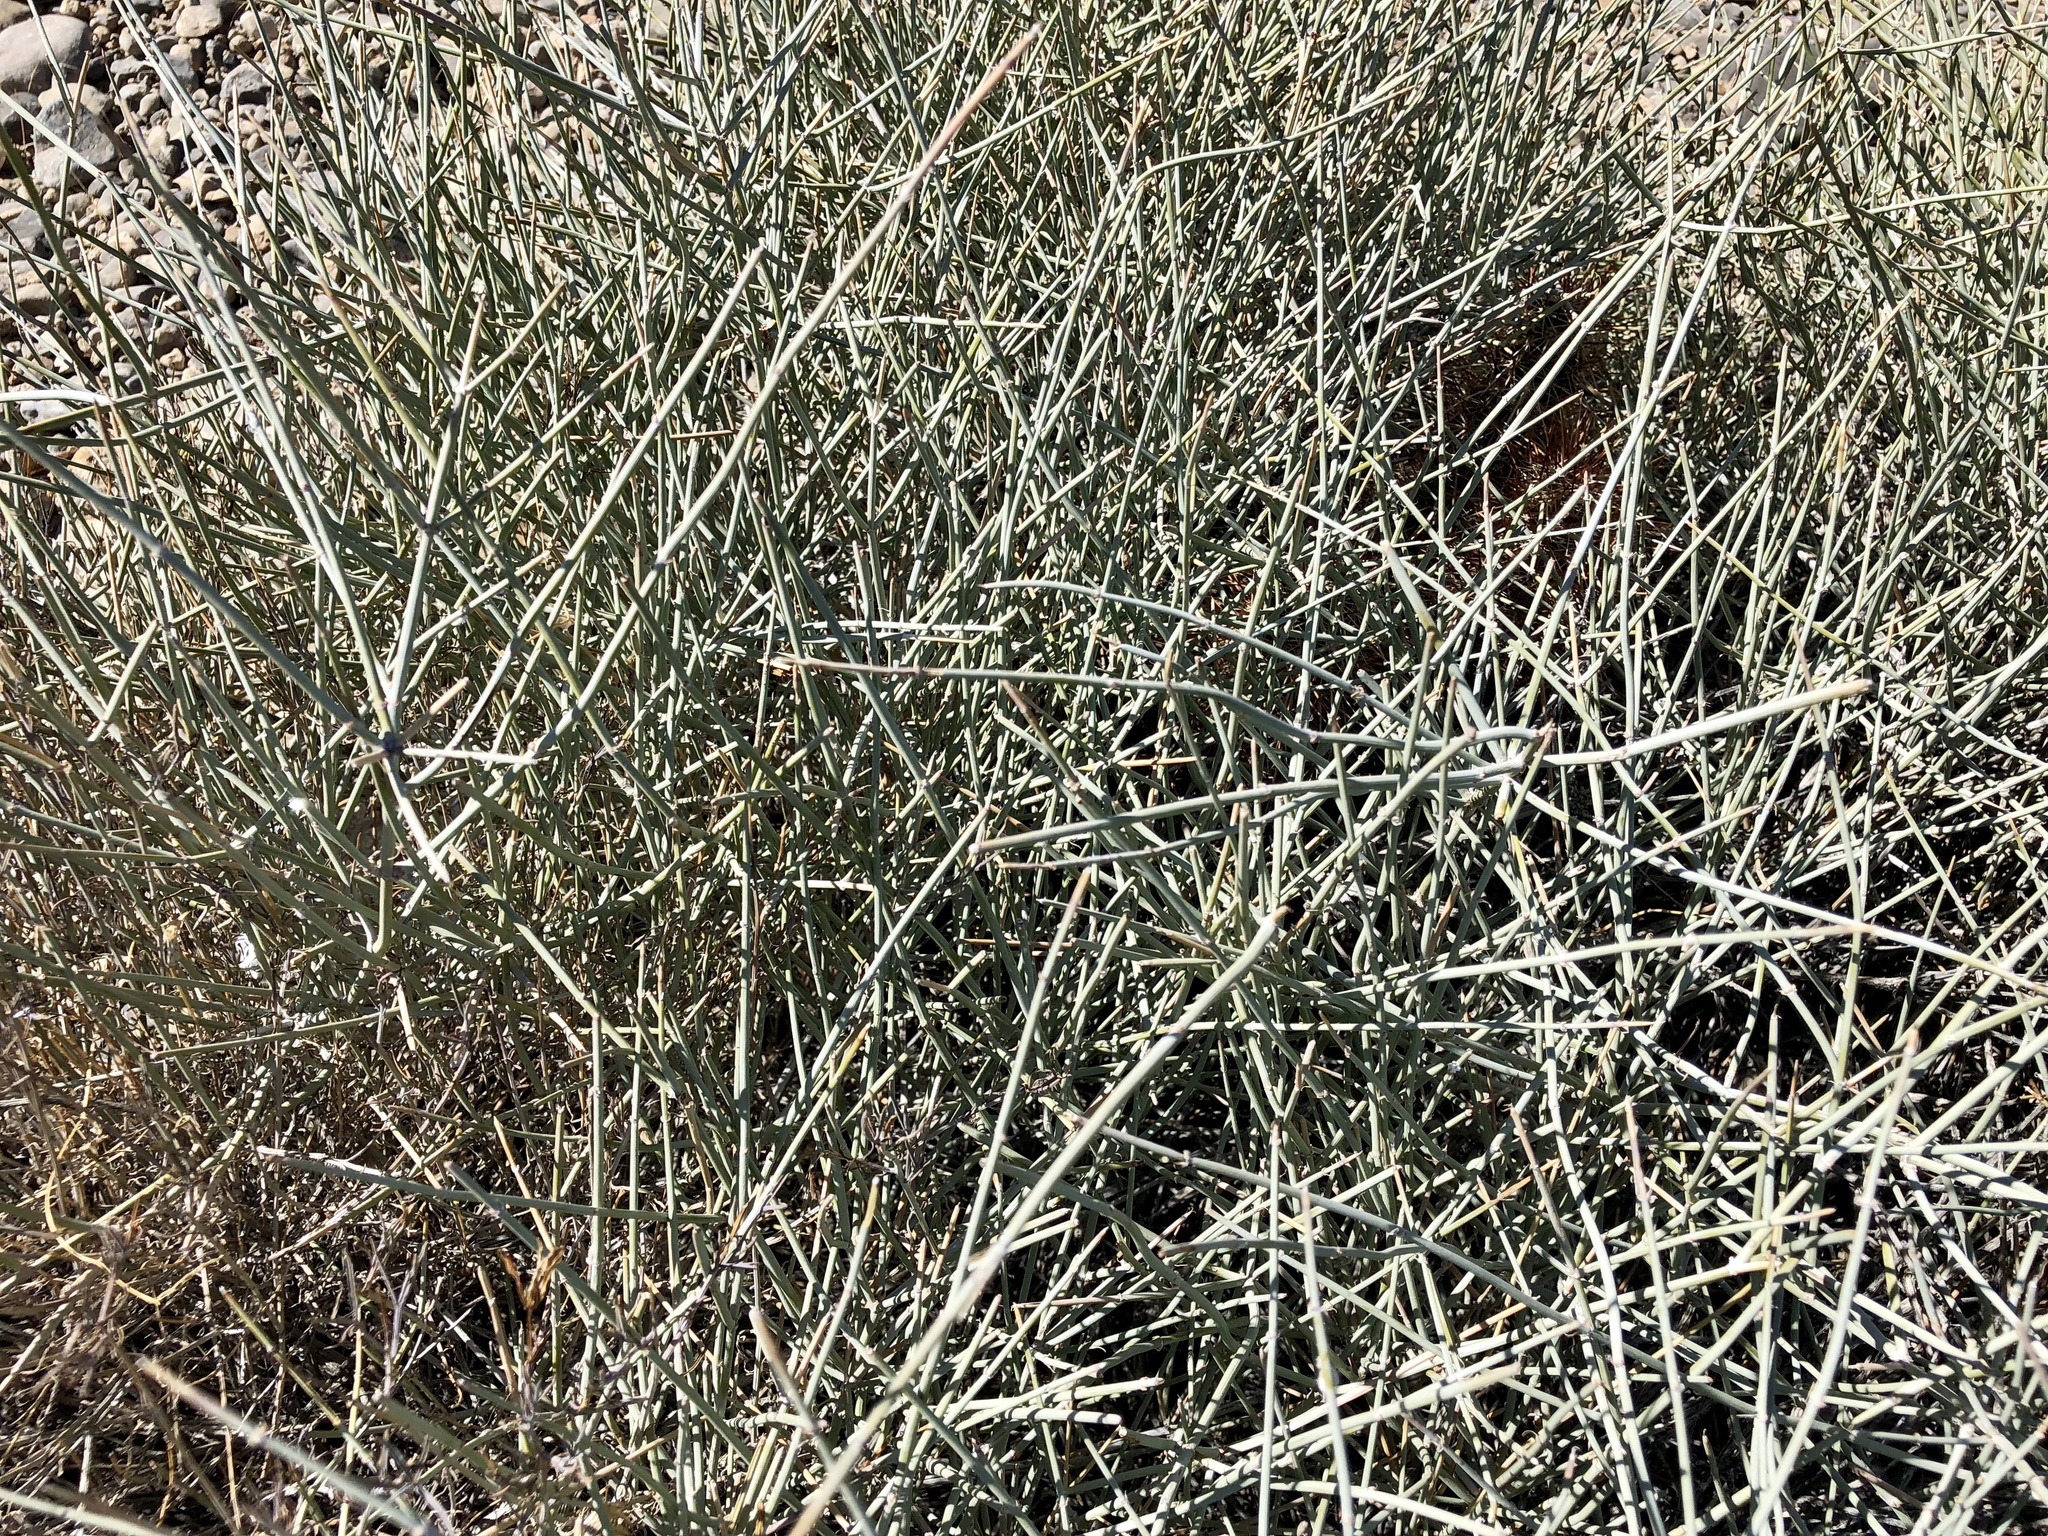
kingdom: Plantae
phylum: Tracheophyta
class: Gnetopsida
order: Ephedrales
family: Ephedraceae
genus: Ephedra
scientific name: Ephedra nevadensis
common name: Gray ephedra
